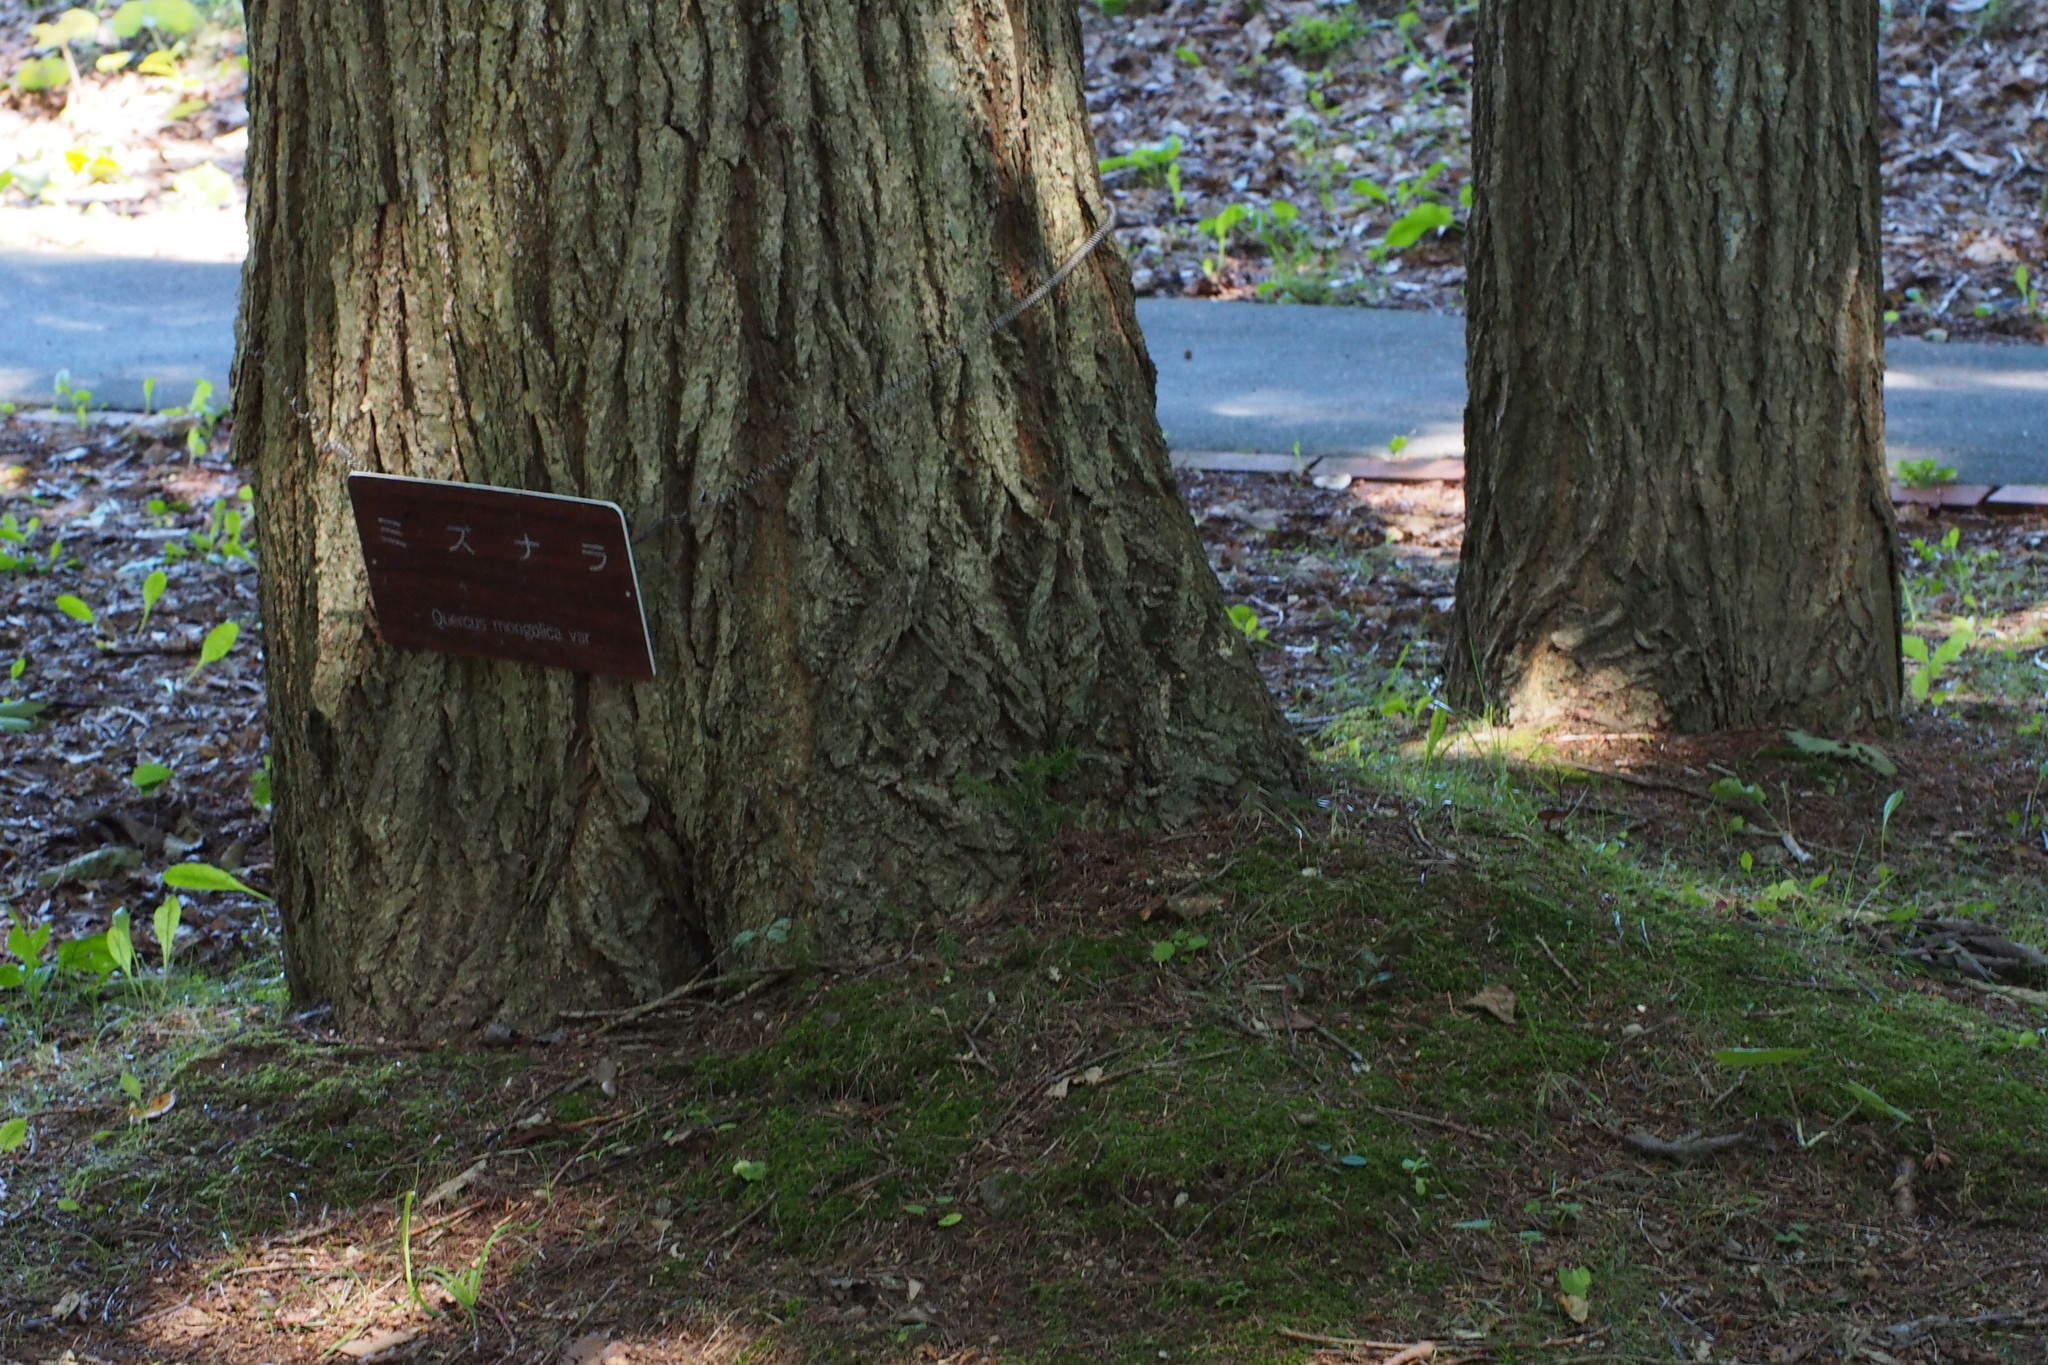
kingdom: Plantae
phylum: Tracheophyta
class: Magnoliopsida
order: Fagales
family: Fagaceae
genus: Quercus
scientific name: Quercus crispula
